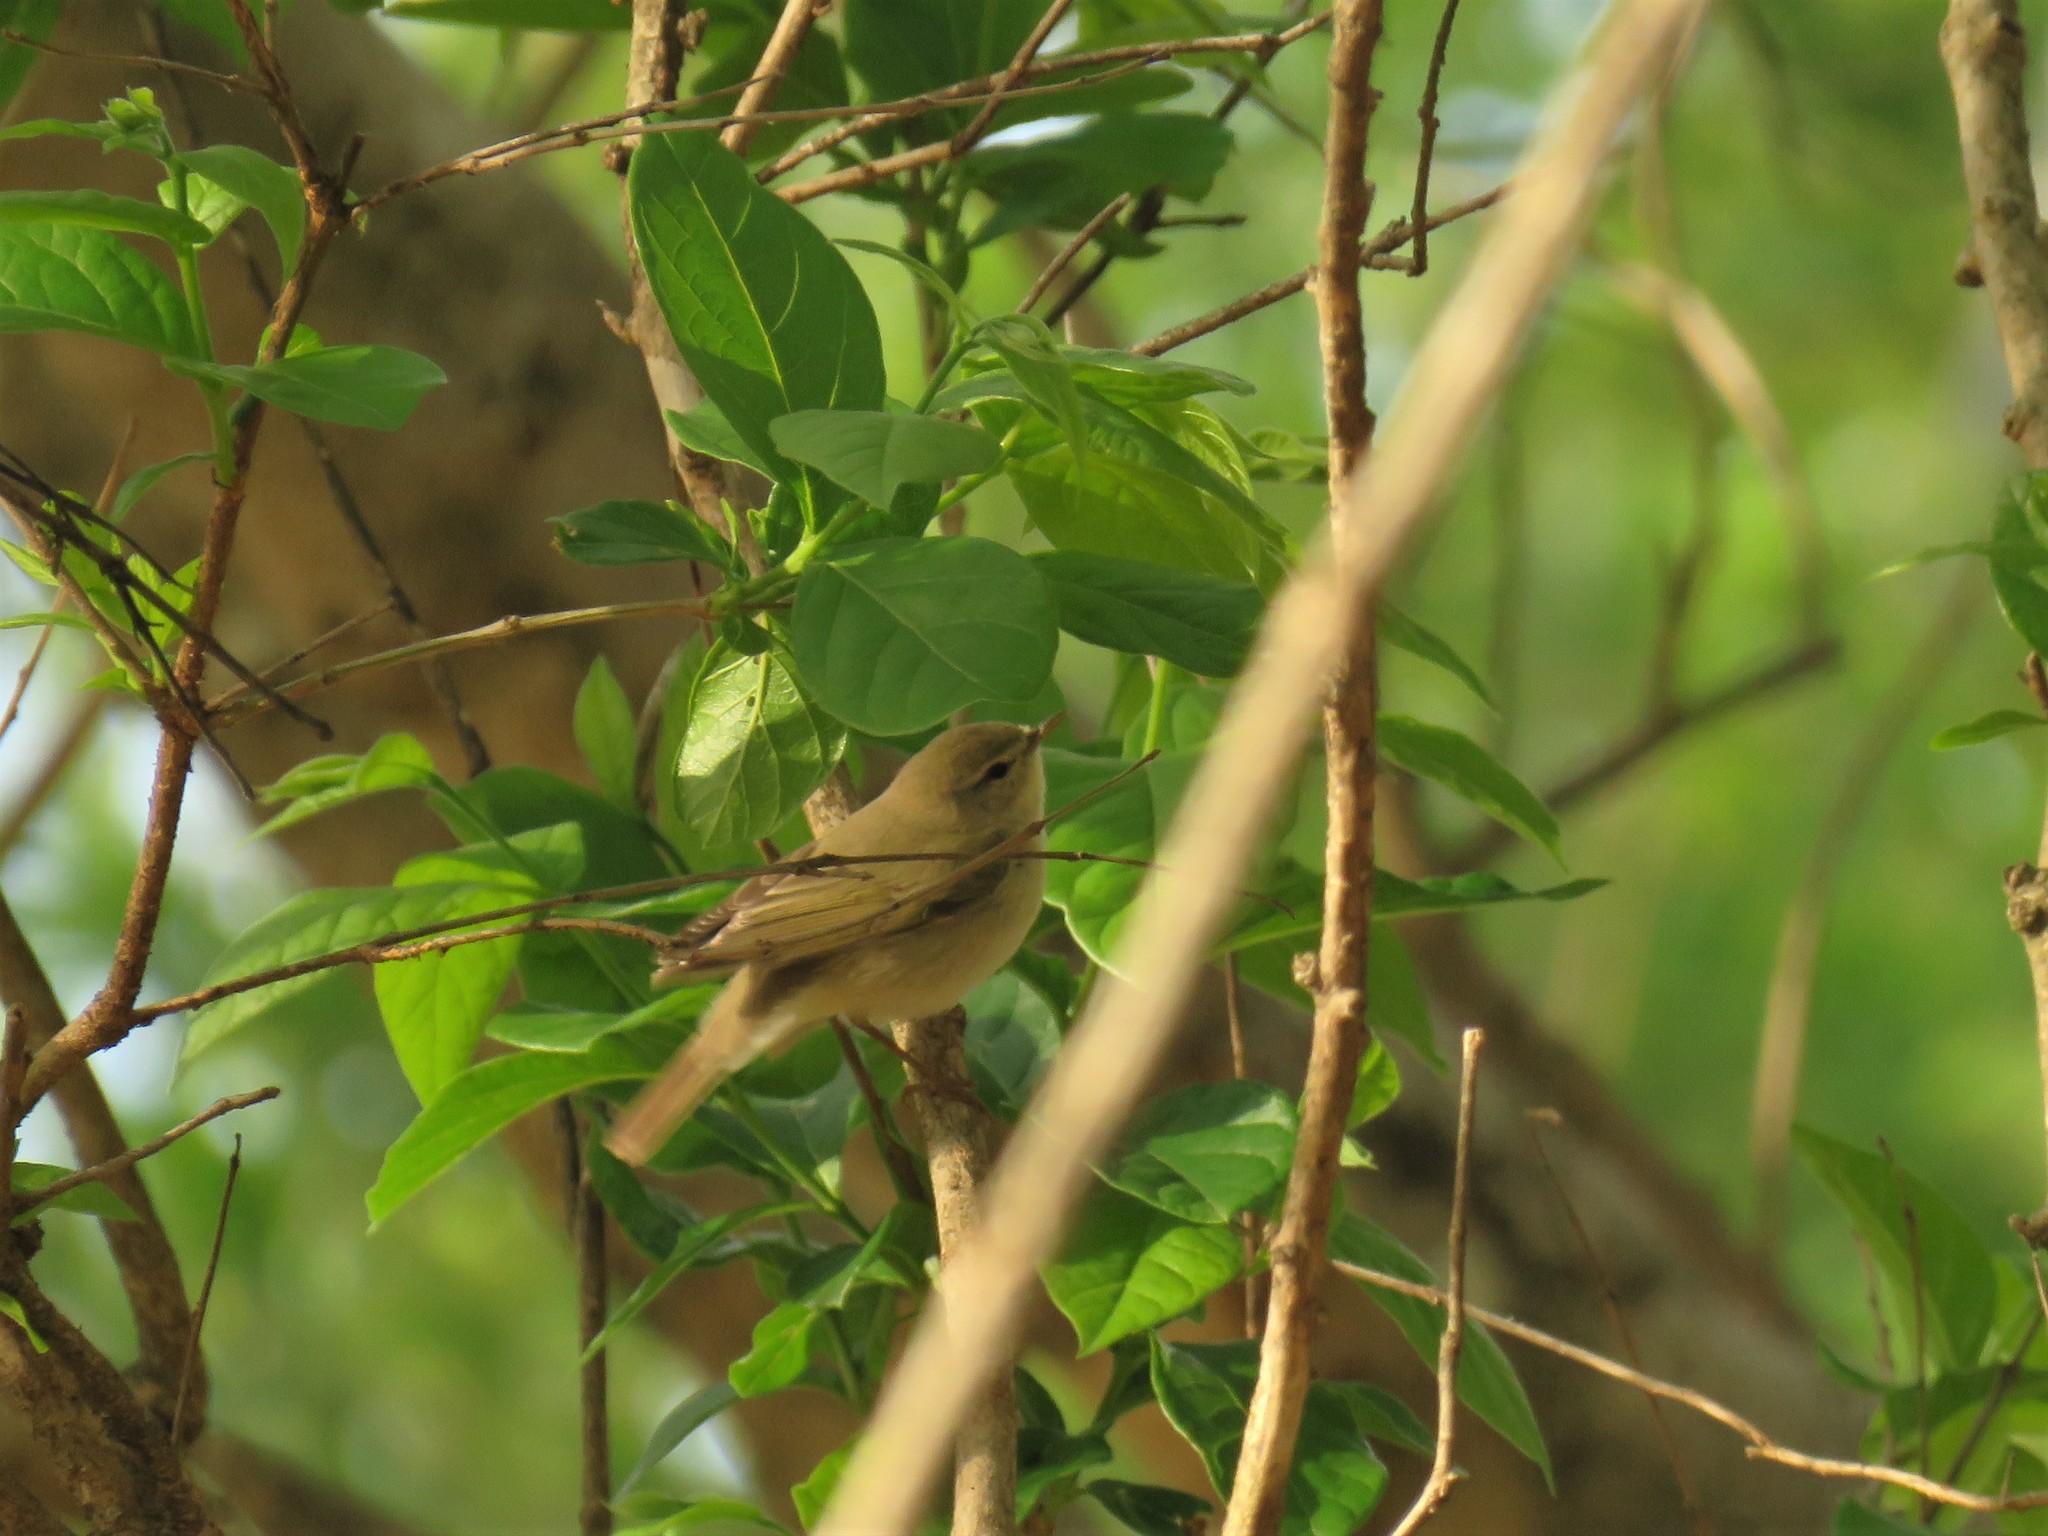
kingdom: Animalia
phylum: Chordata
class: Aves
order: Passeriformes
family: Phylloscopidae
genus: Phylloscopus
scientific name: Phylloscopus trochilus
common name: Willow warbler
